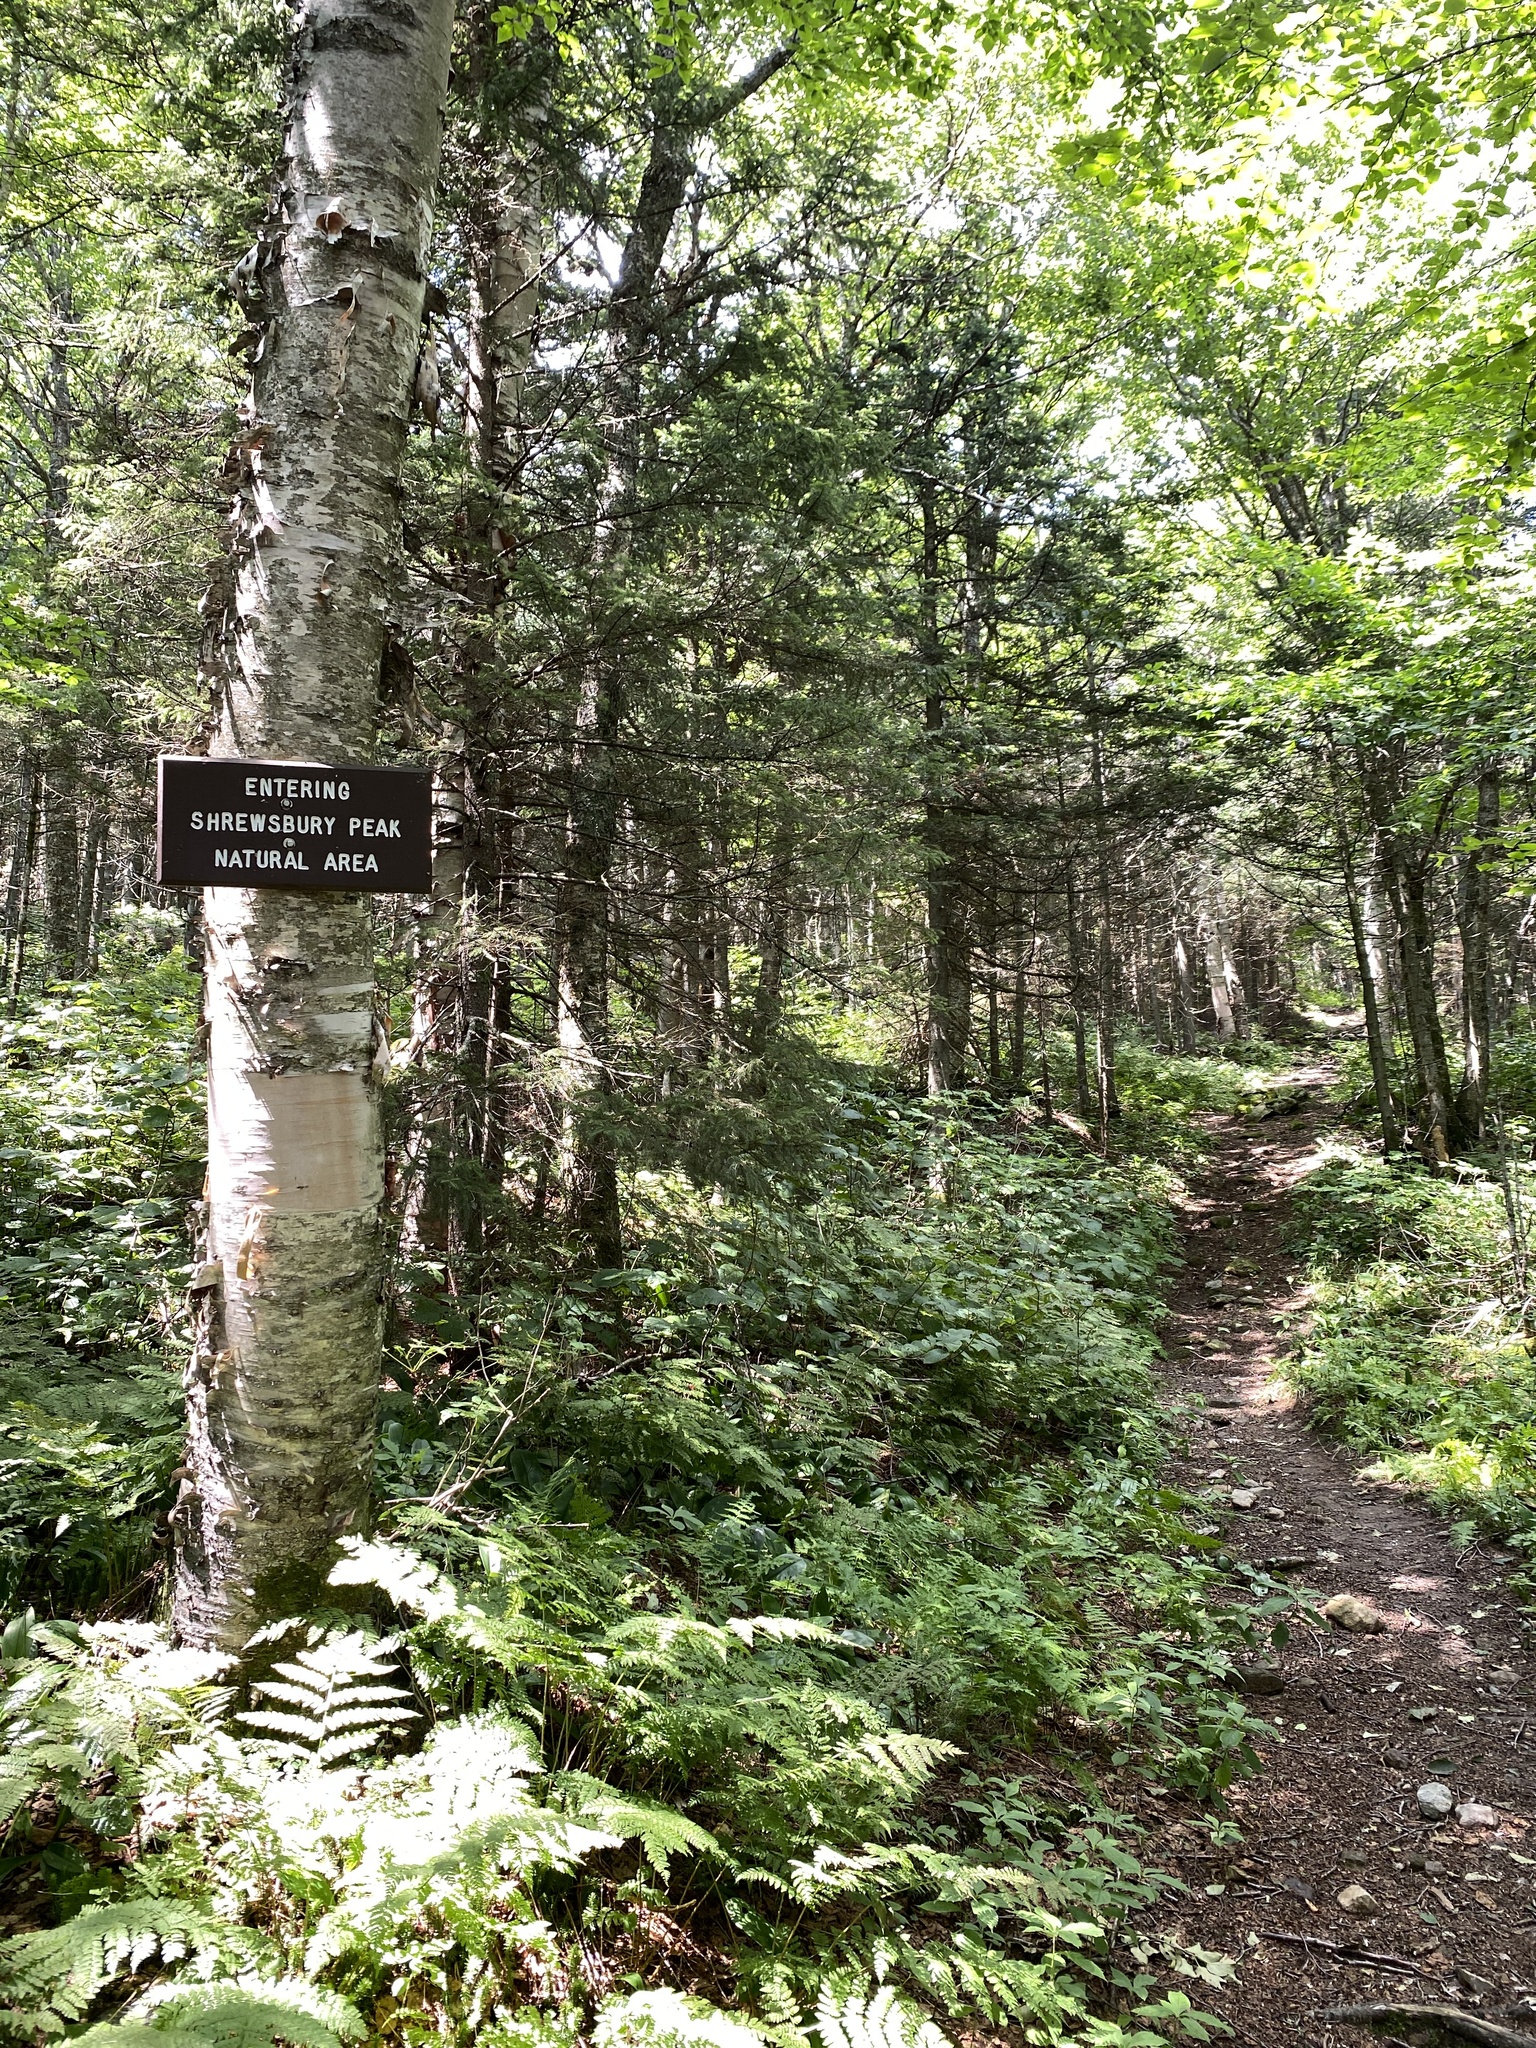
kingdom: Plantae
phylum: Tracheophyta
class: Magnoliopsida
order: Fagales
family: Betulaceae
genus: Betula
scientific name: Betula cordifolia
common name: Mountain white birch
